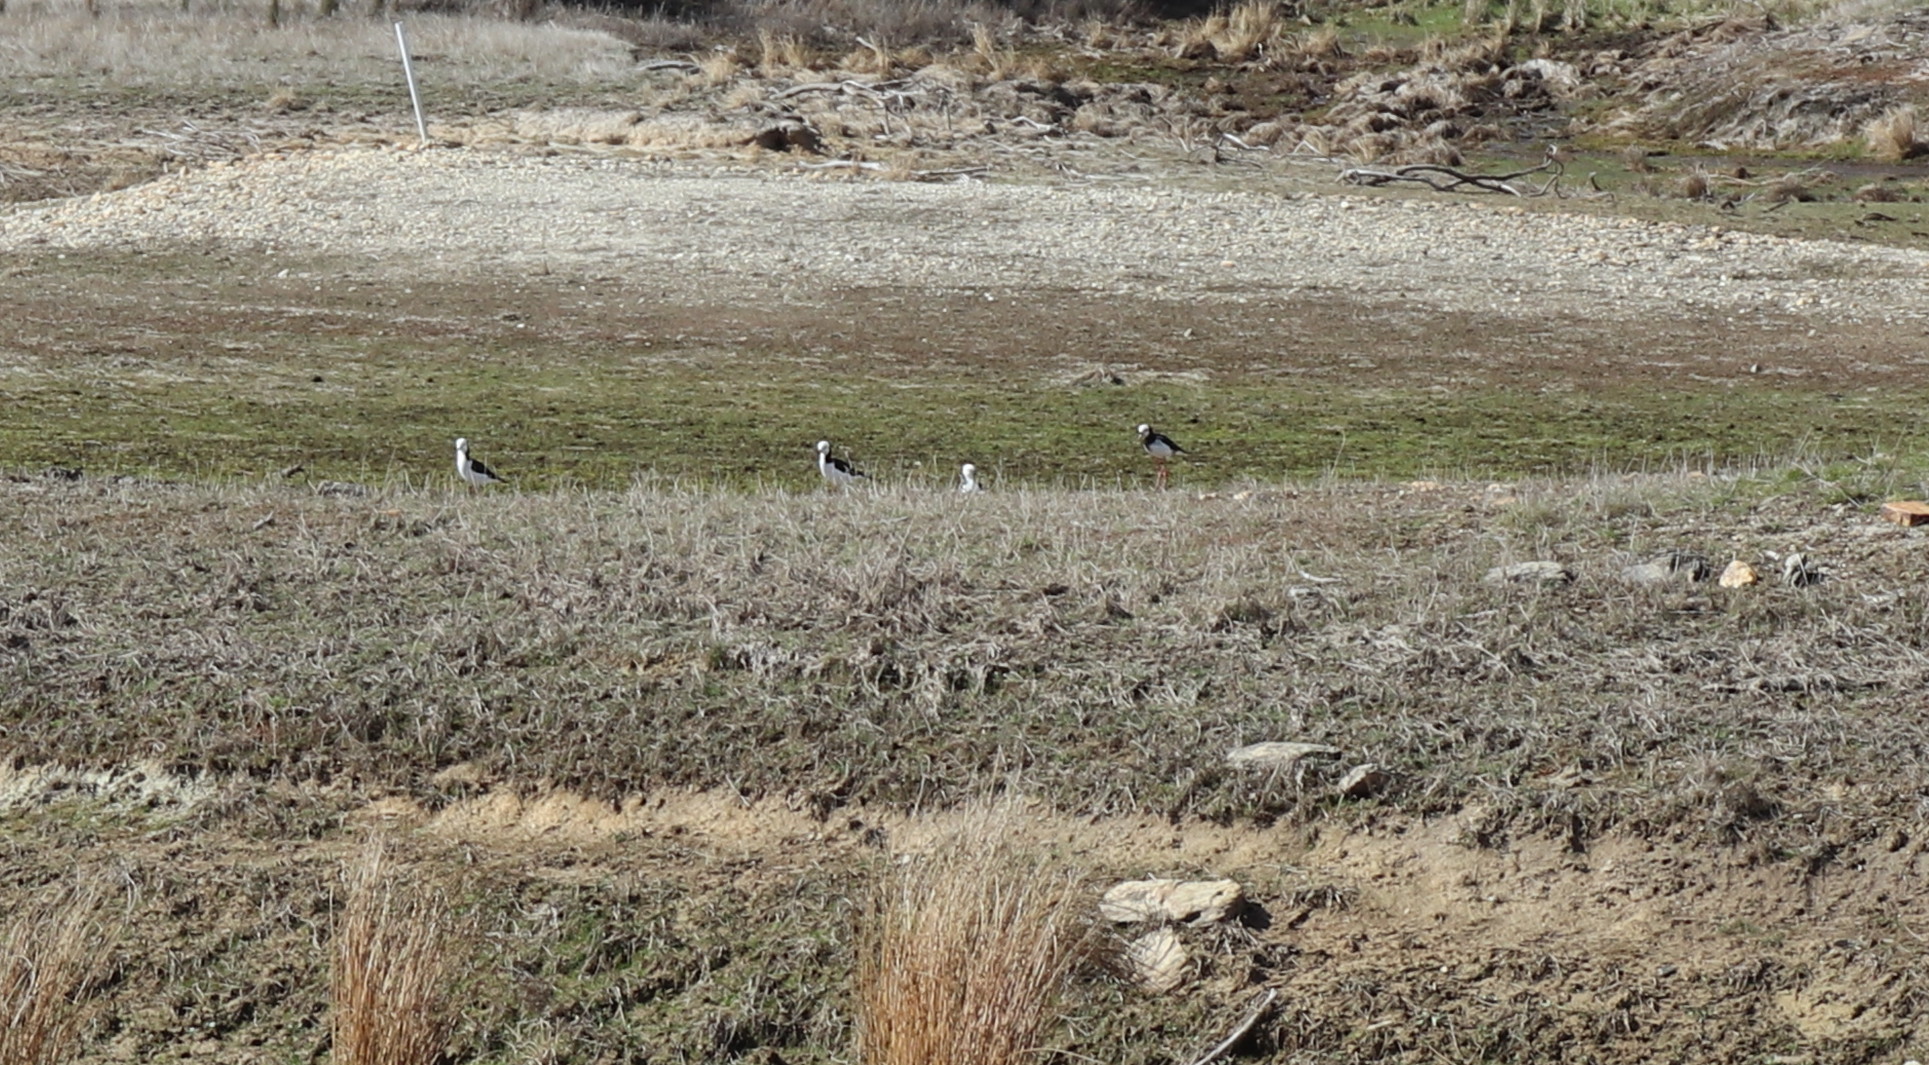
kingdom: Animalia
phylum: Chordata
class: Aves
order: Charadriiformes
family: Recurvirostridae
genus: Himantopus
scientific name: Himantopus leucocephalus
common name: White-headed stilt
